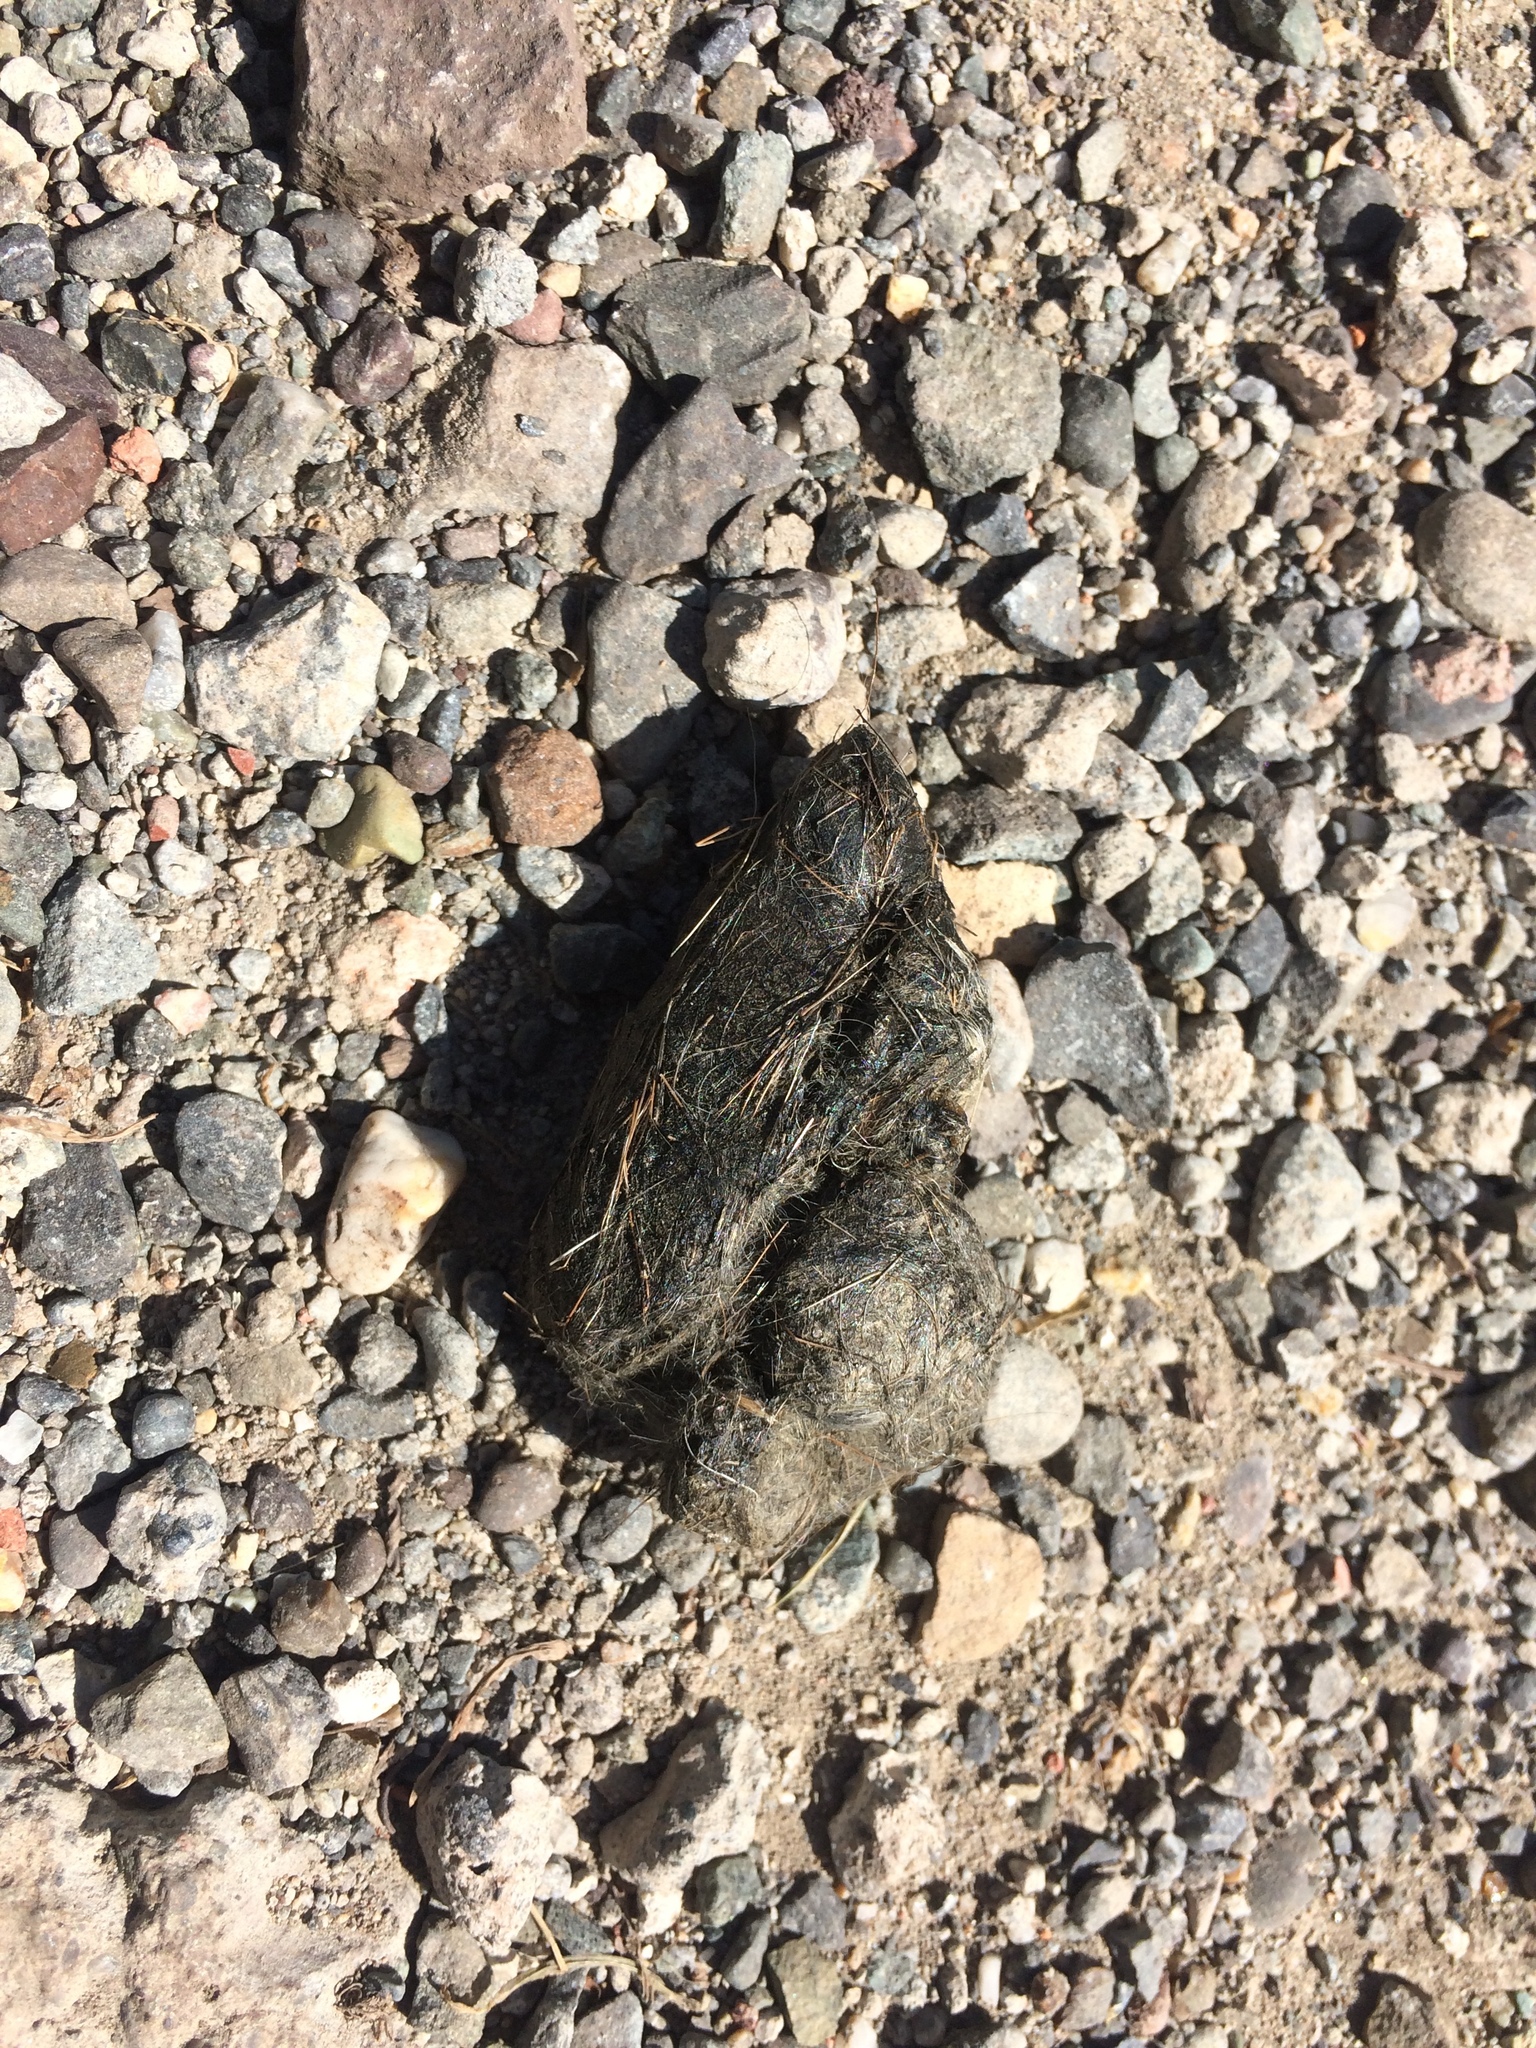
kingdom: Animalia
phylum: Chordata
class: Mammalia
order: Carnivora
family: Felidae
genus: Lynx
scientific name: Lynx rufus
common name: Bobcat
